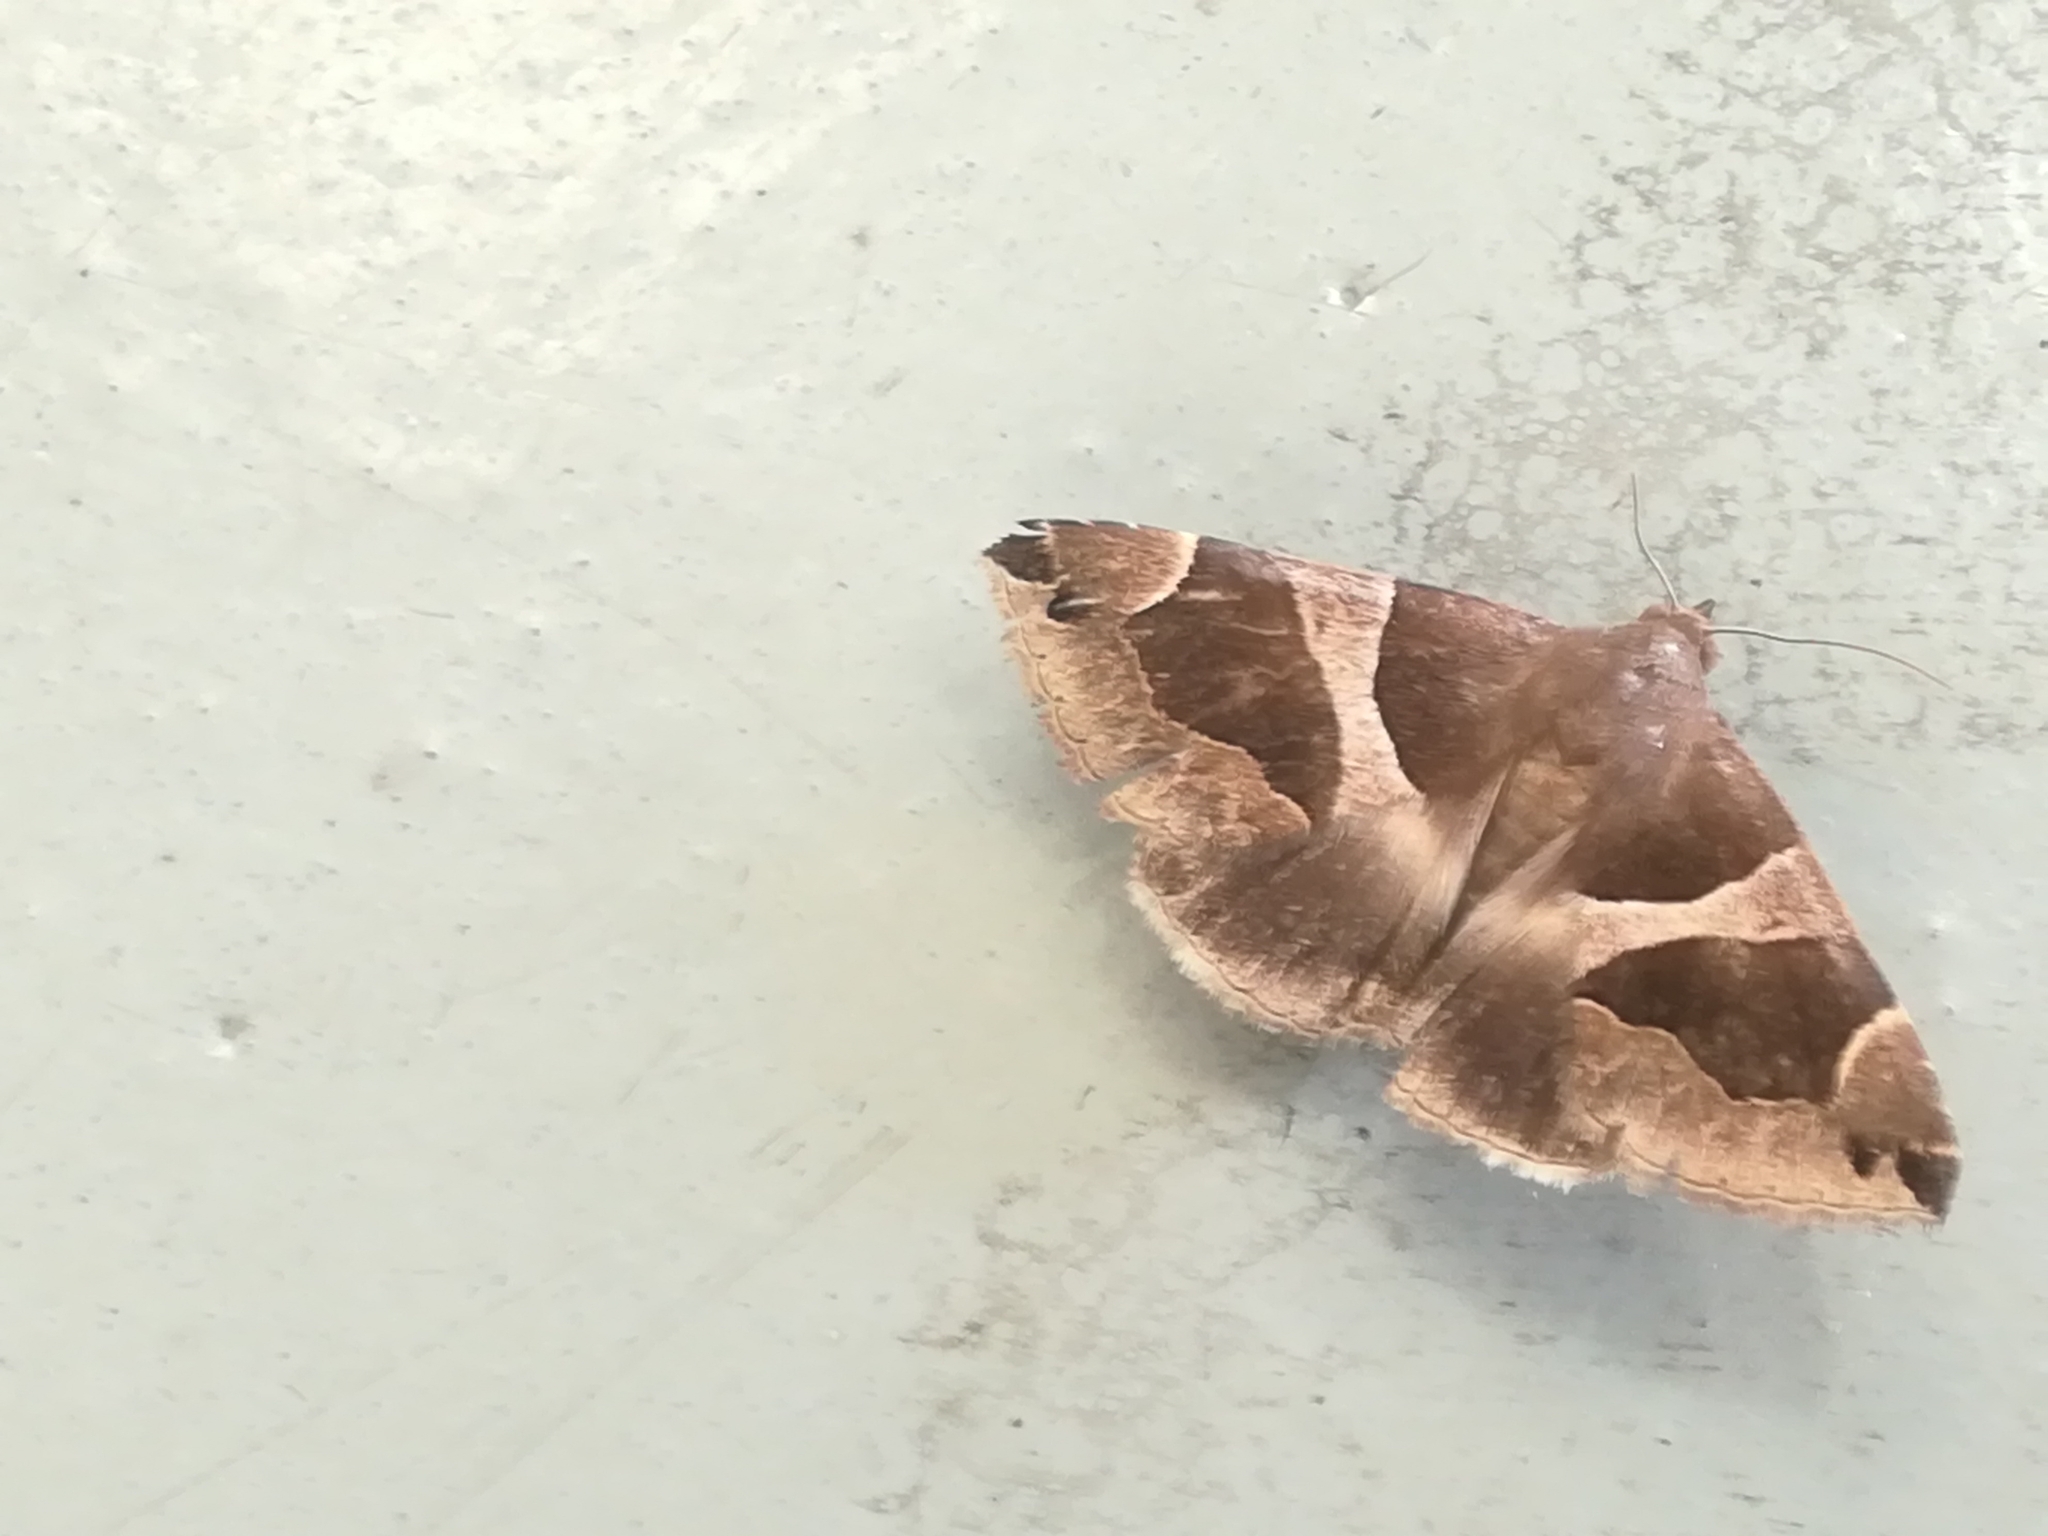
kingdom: Animalia
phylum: Arthropoda
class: Insecta
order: Lepidoptera
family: Erebidae
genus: Dysgonia
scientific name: Dysgonia algira
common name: Passenger
